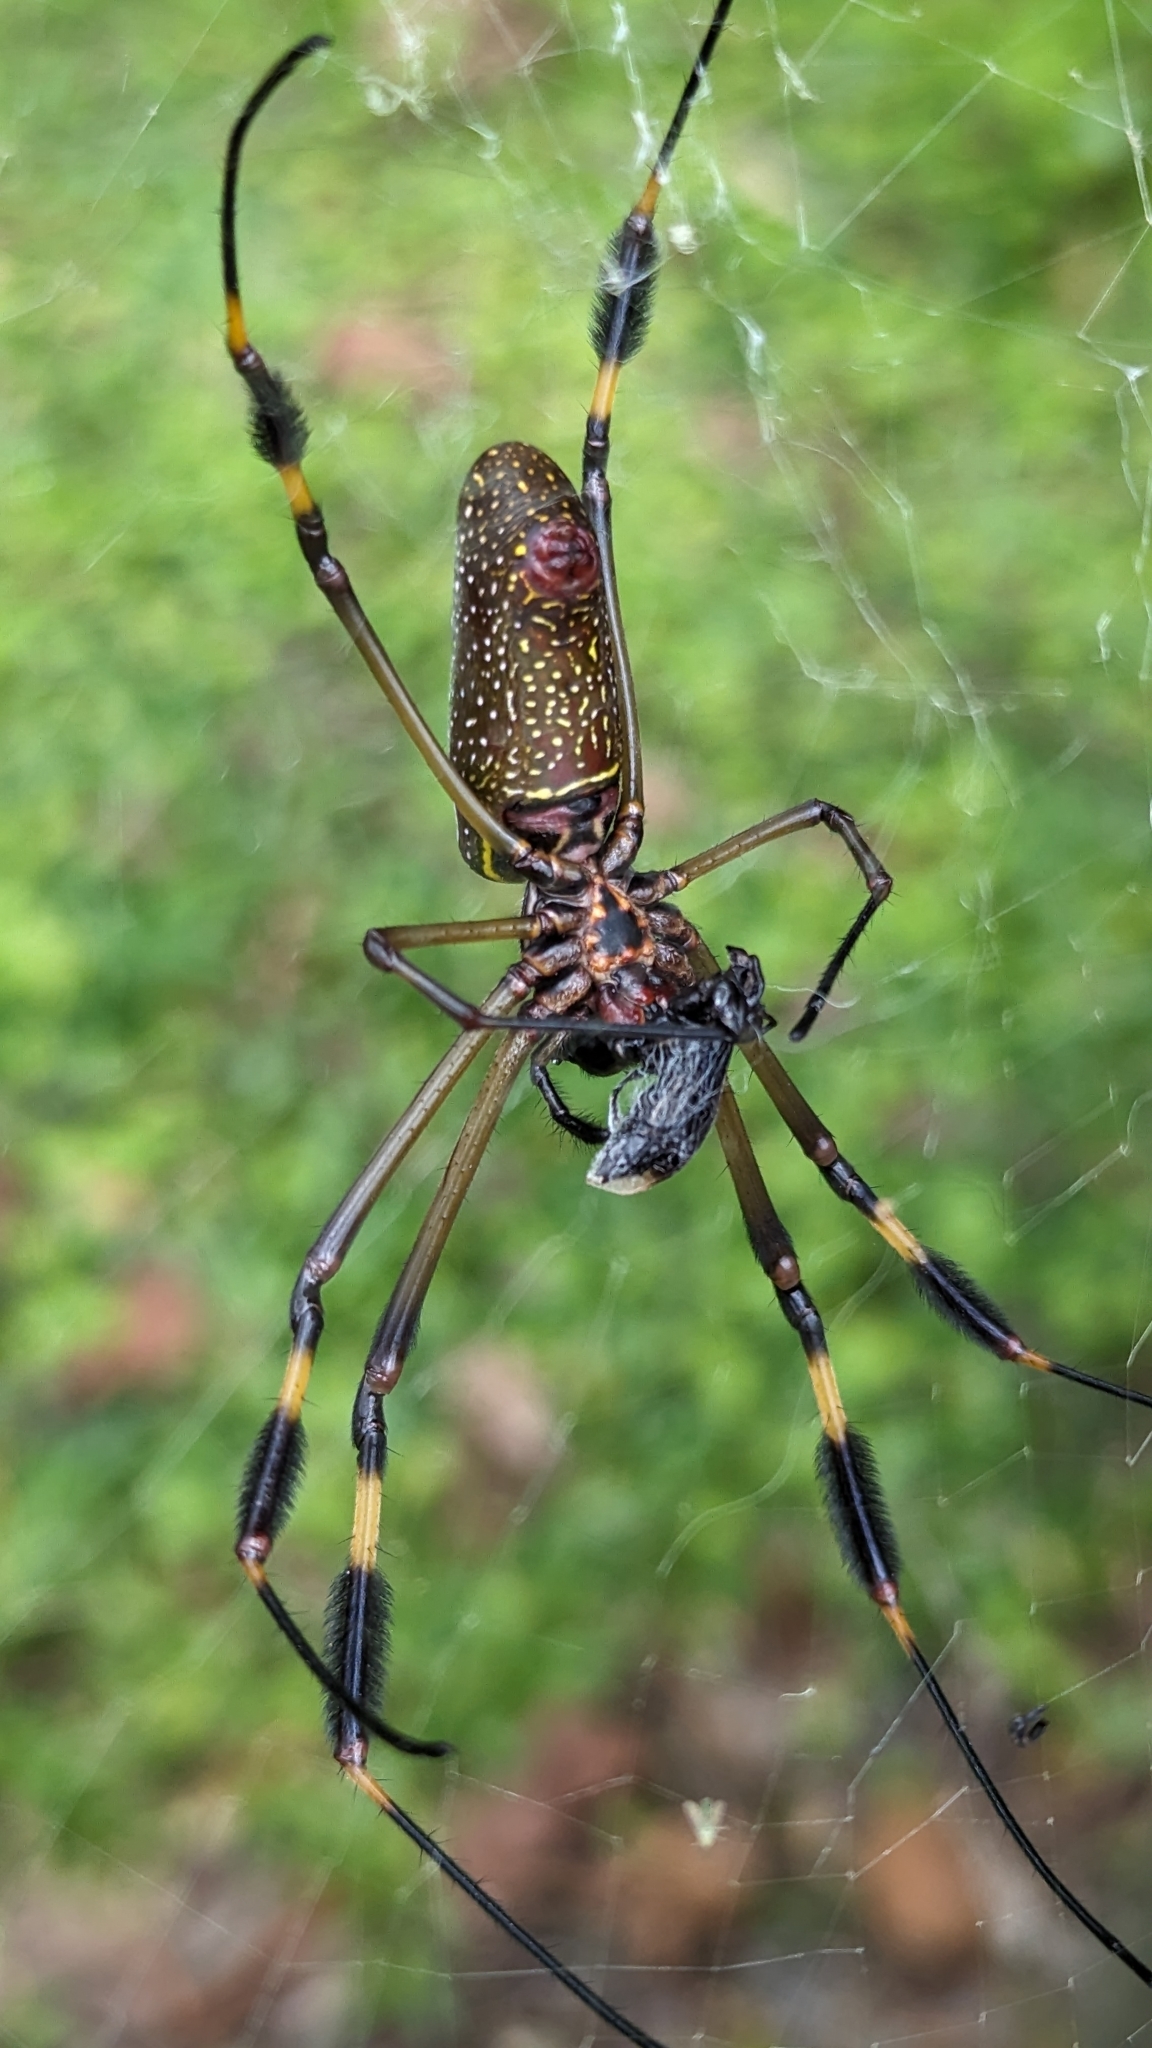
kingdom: Animalia
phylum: Arthropoda
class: Arachnida
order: Araneae
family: Araneidae
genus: Trichonephila
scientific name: Trichonephila clavipes
